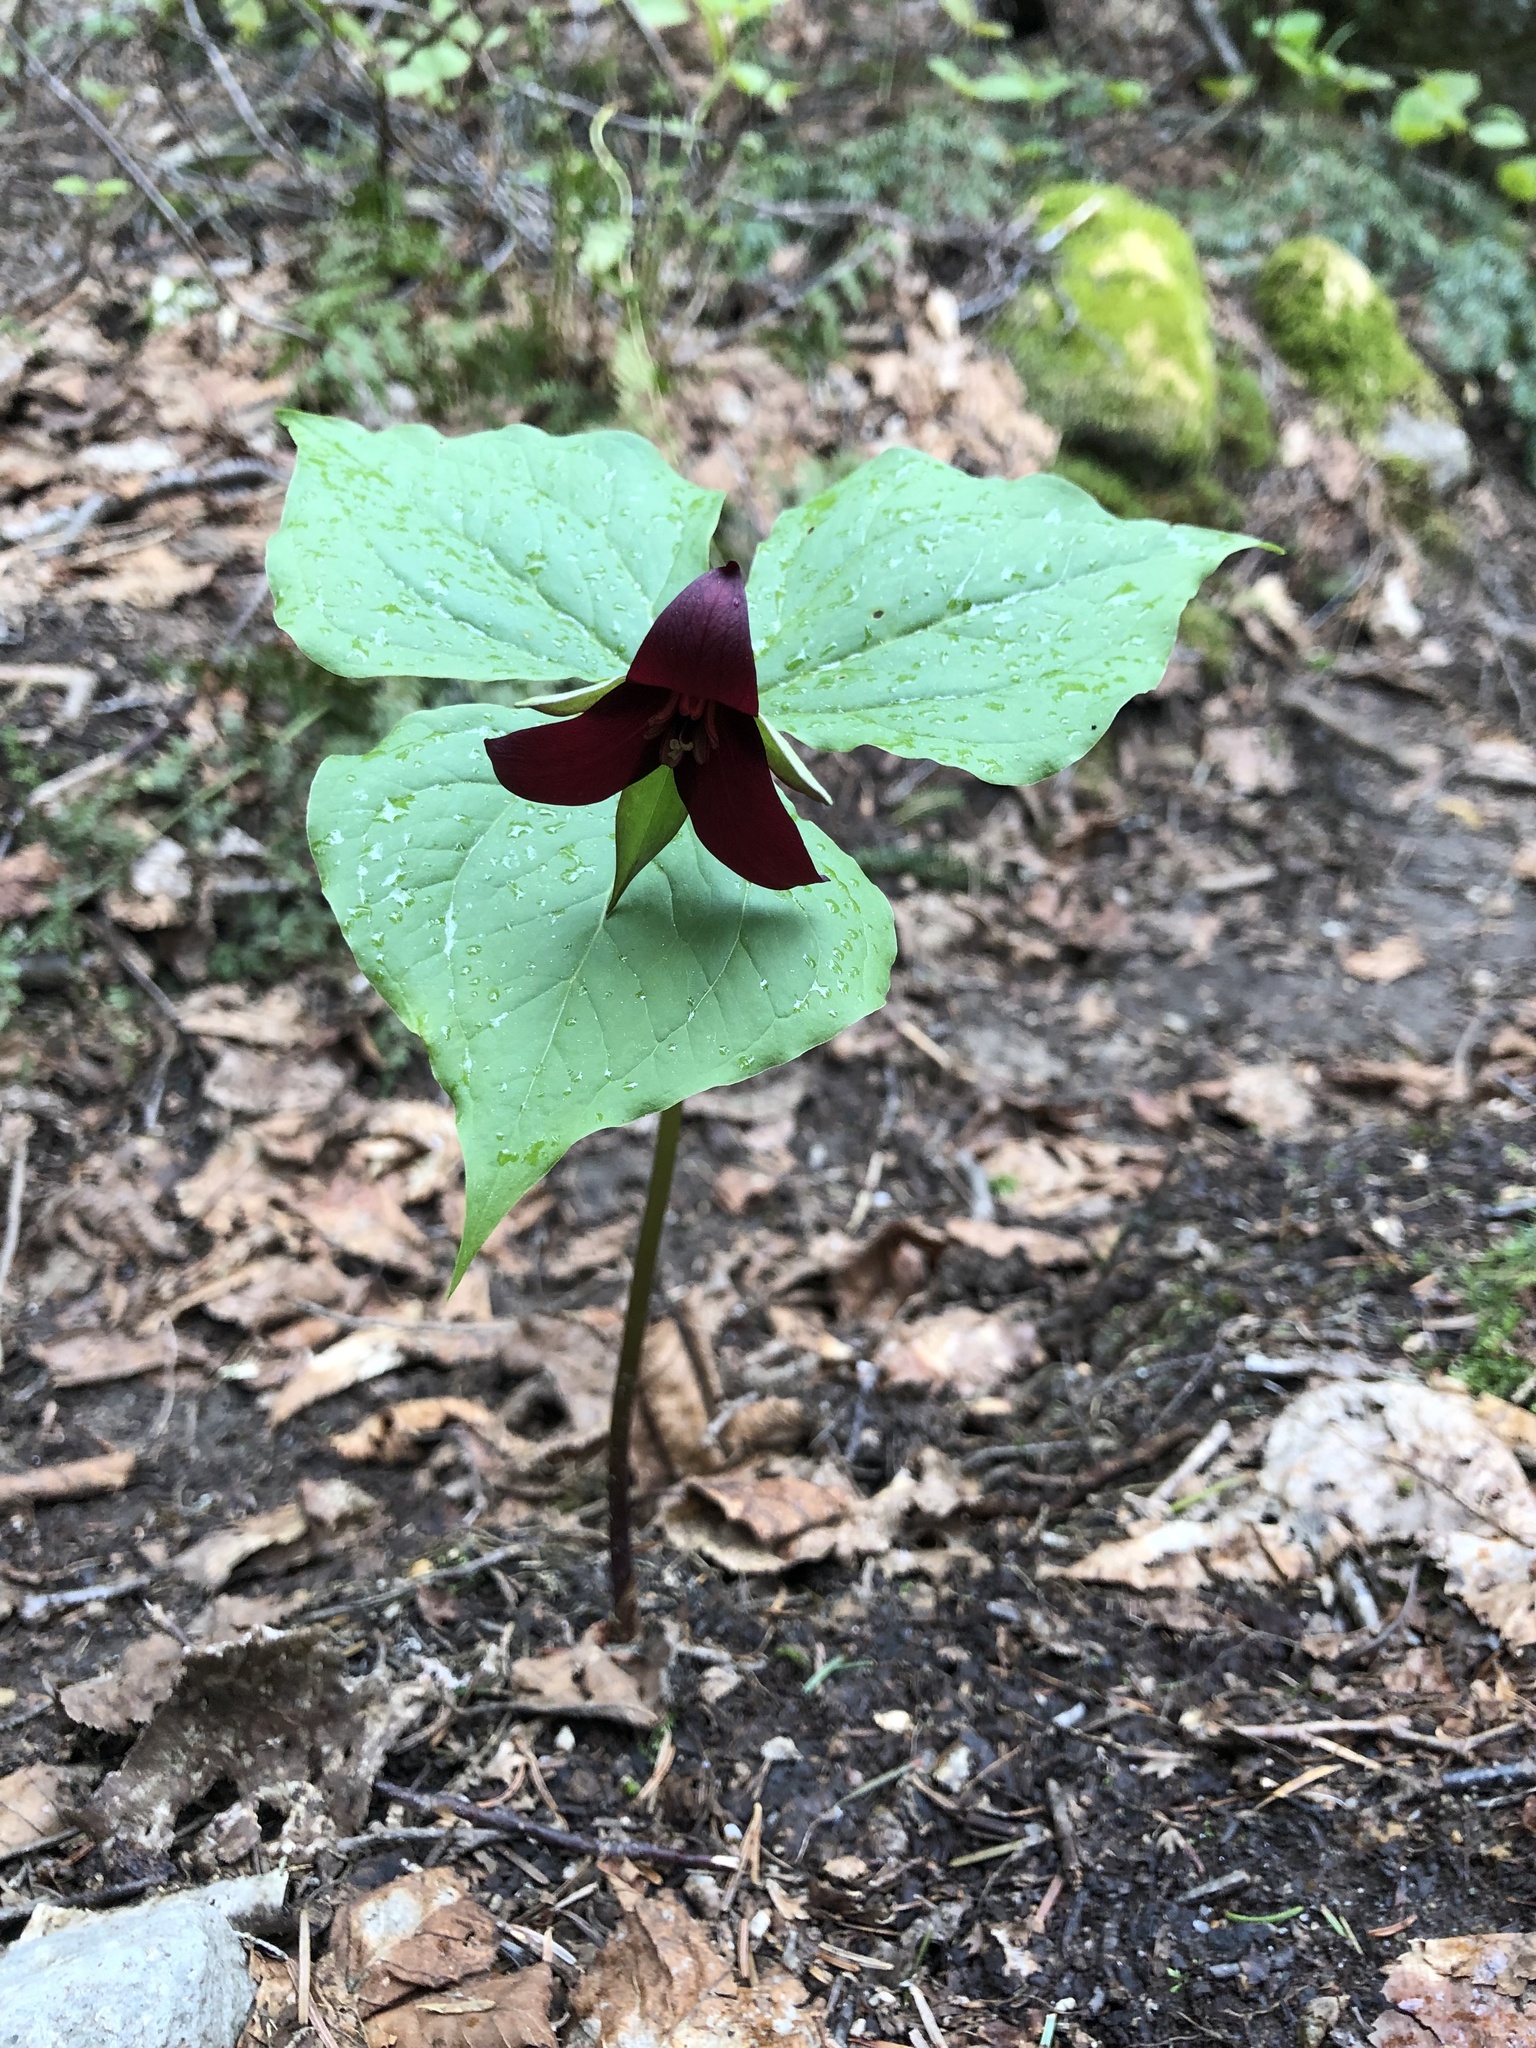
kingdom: Plantae
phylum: Tracheophyta
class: Liliopsida
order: Liliales
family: Melanthiaceae
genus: Trillium
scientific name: Trillium erectum
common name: Purple trillium
